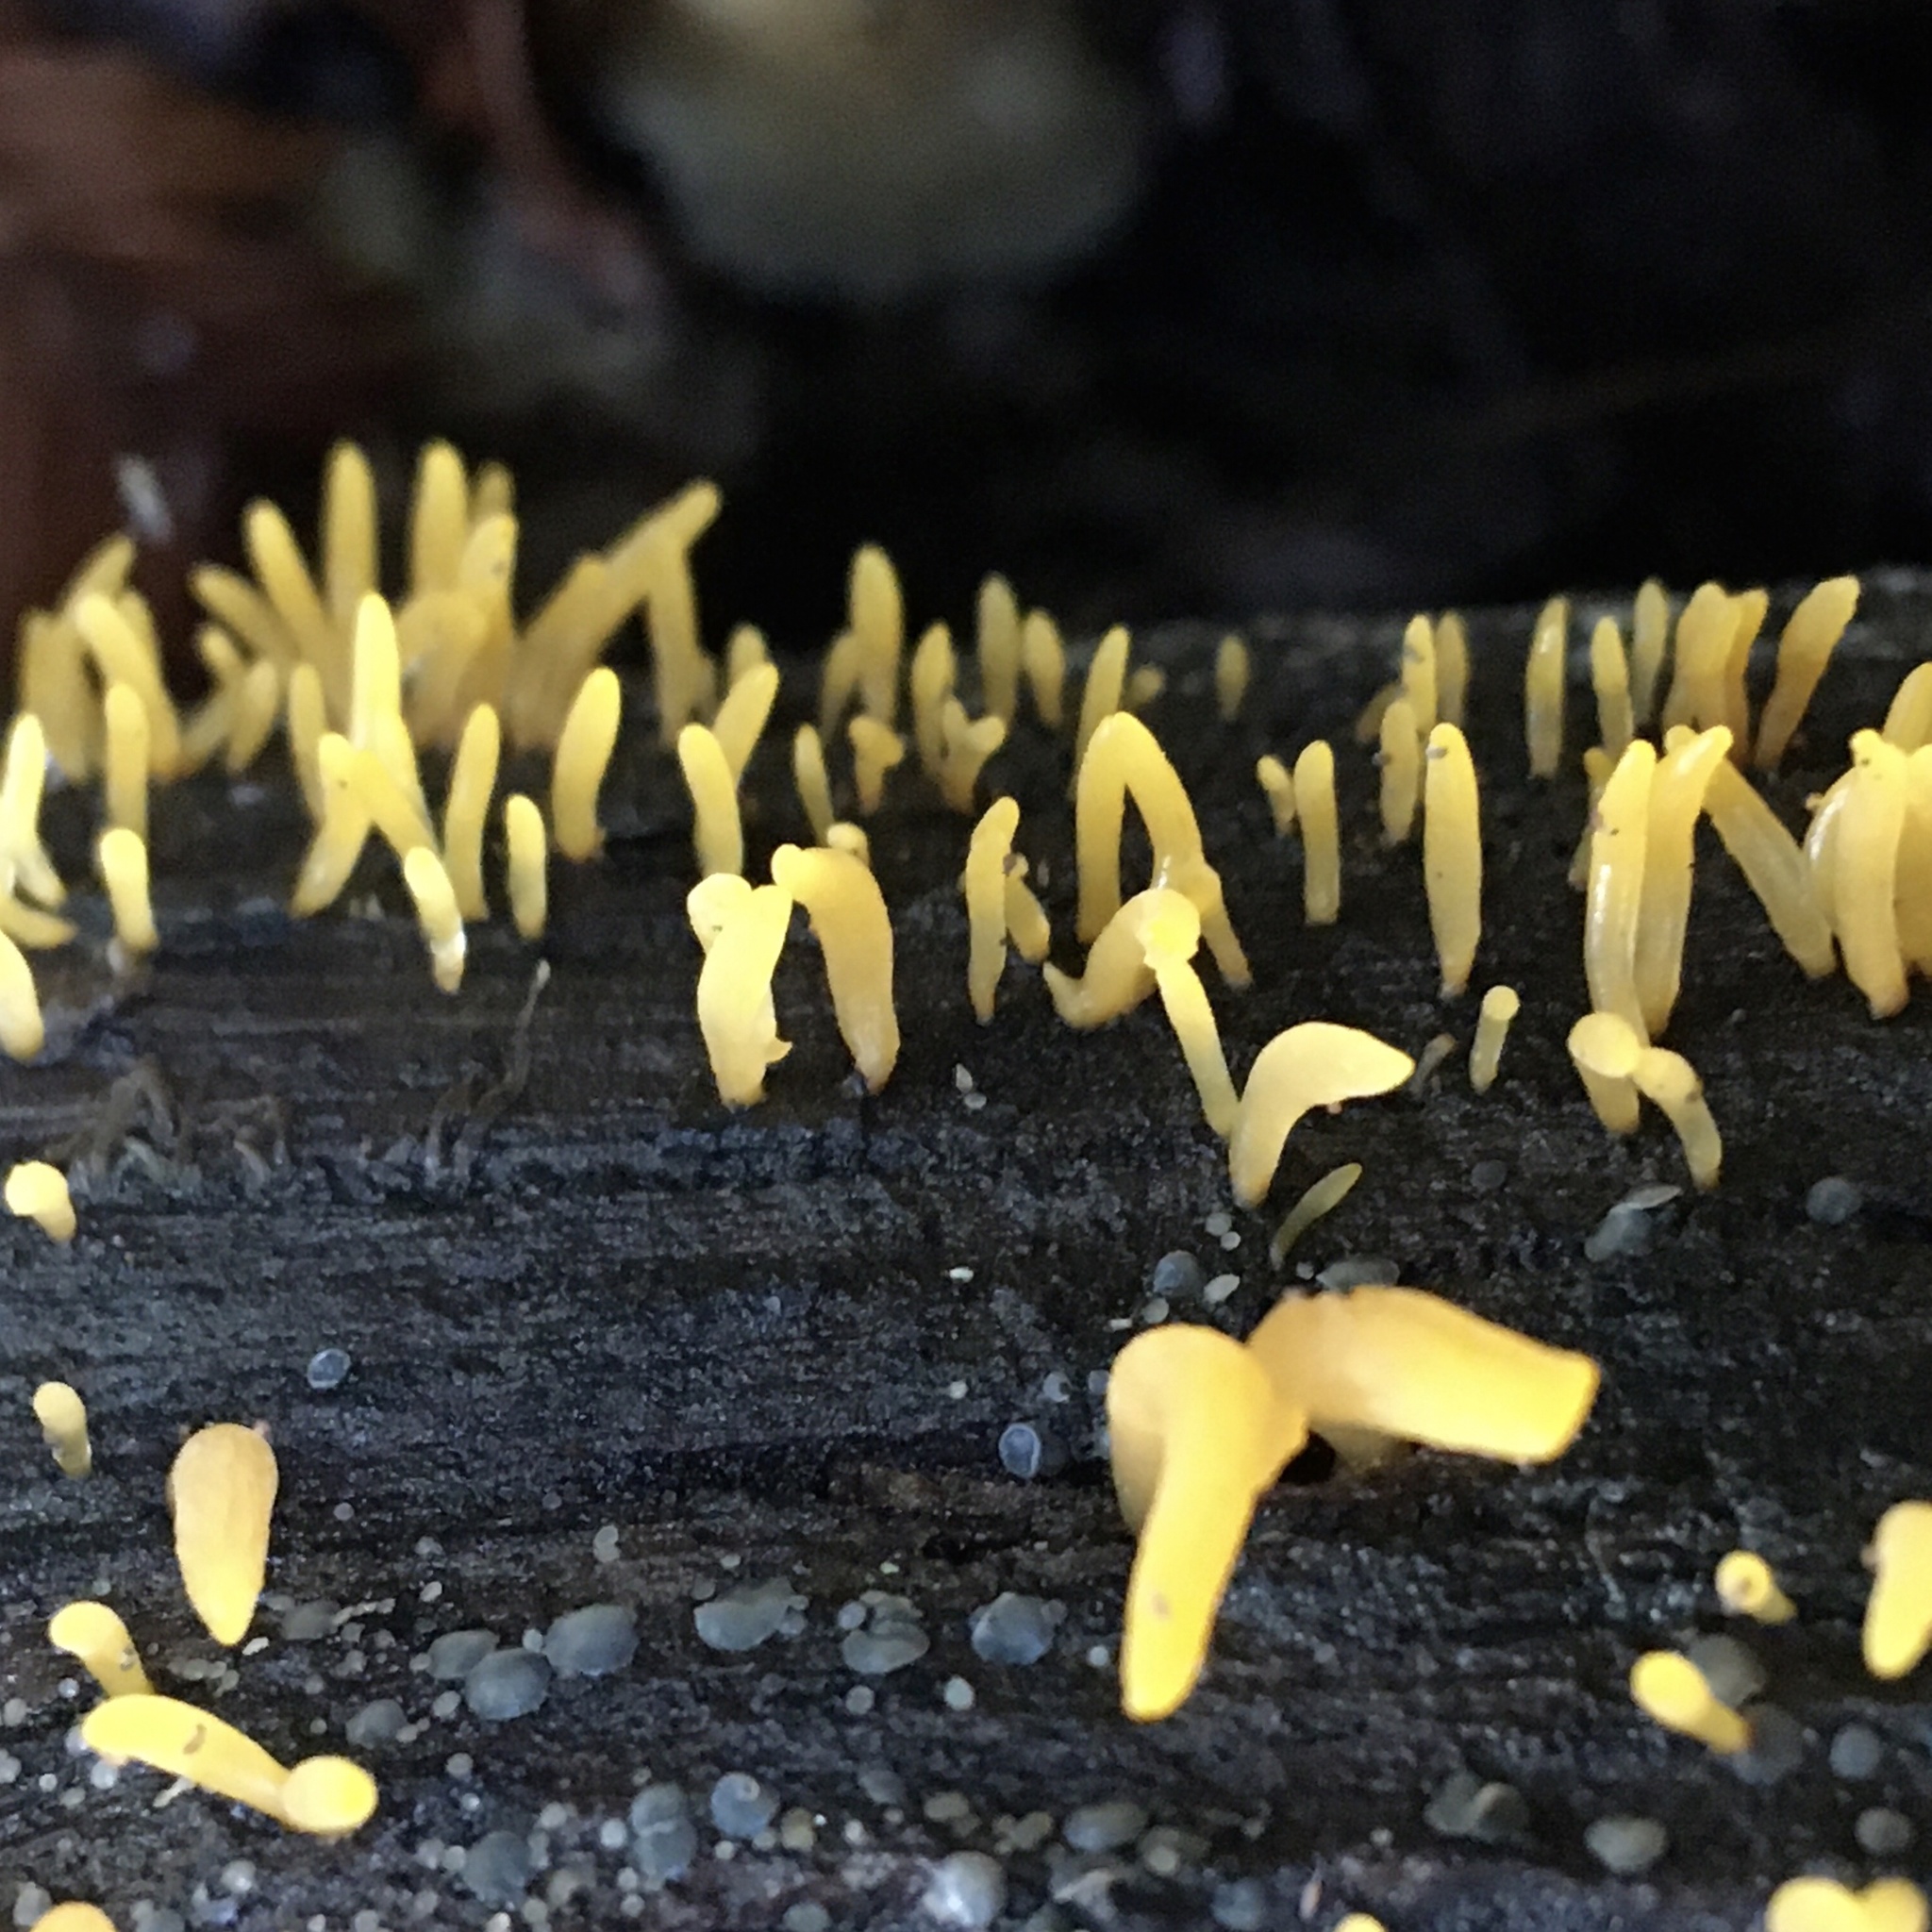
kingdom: Fungi
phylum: Basidiomycota
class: Dacrymycetes
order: Dacrymycetales
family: Dacrymycetaceae
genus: Calocera
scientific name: Calocera cornea
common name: Small stagshorn
